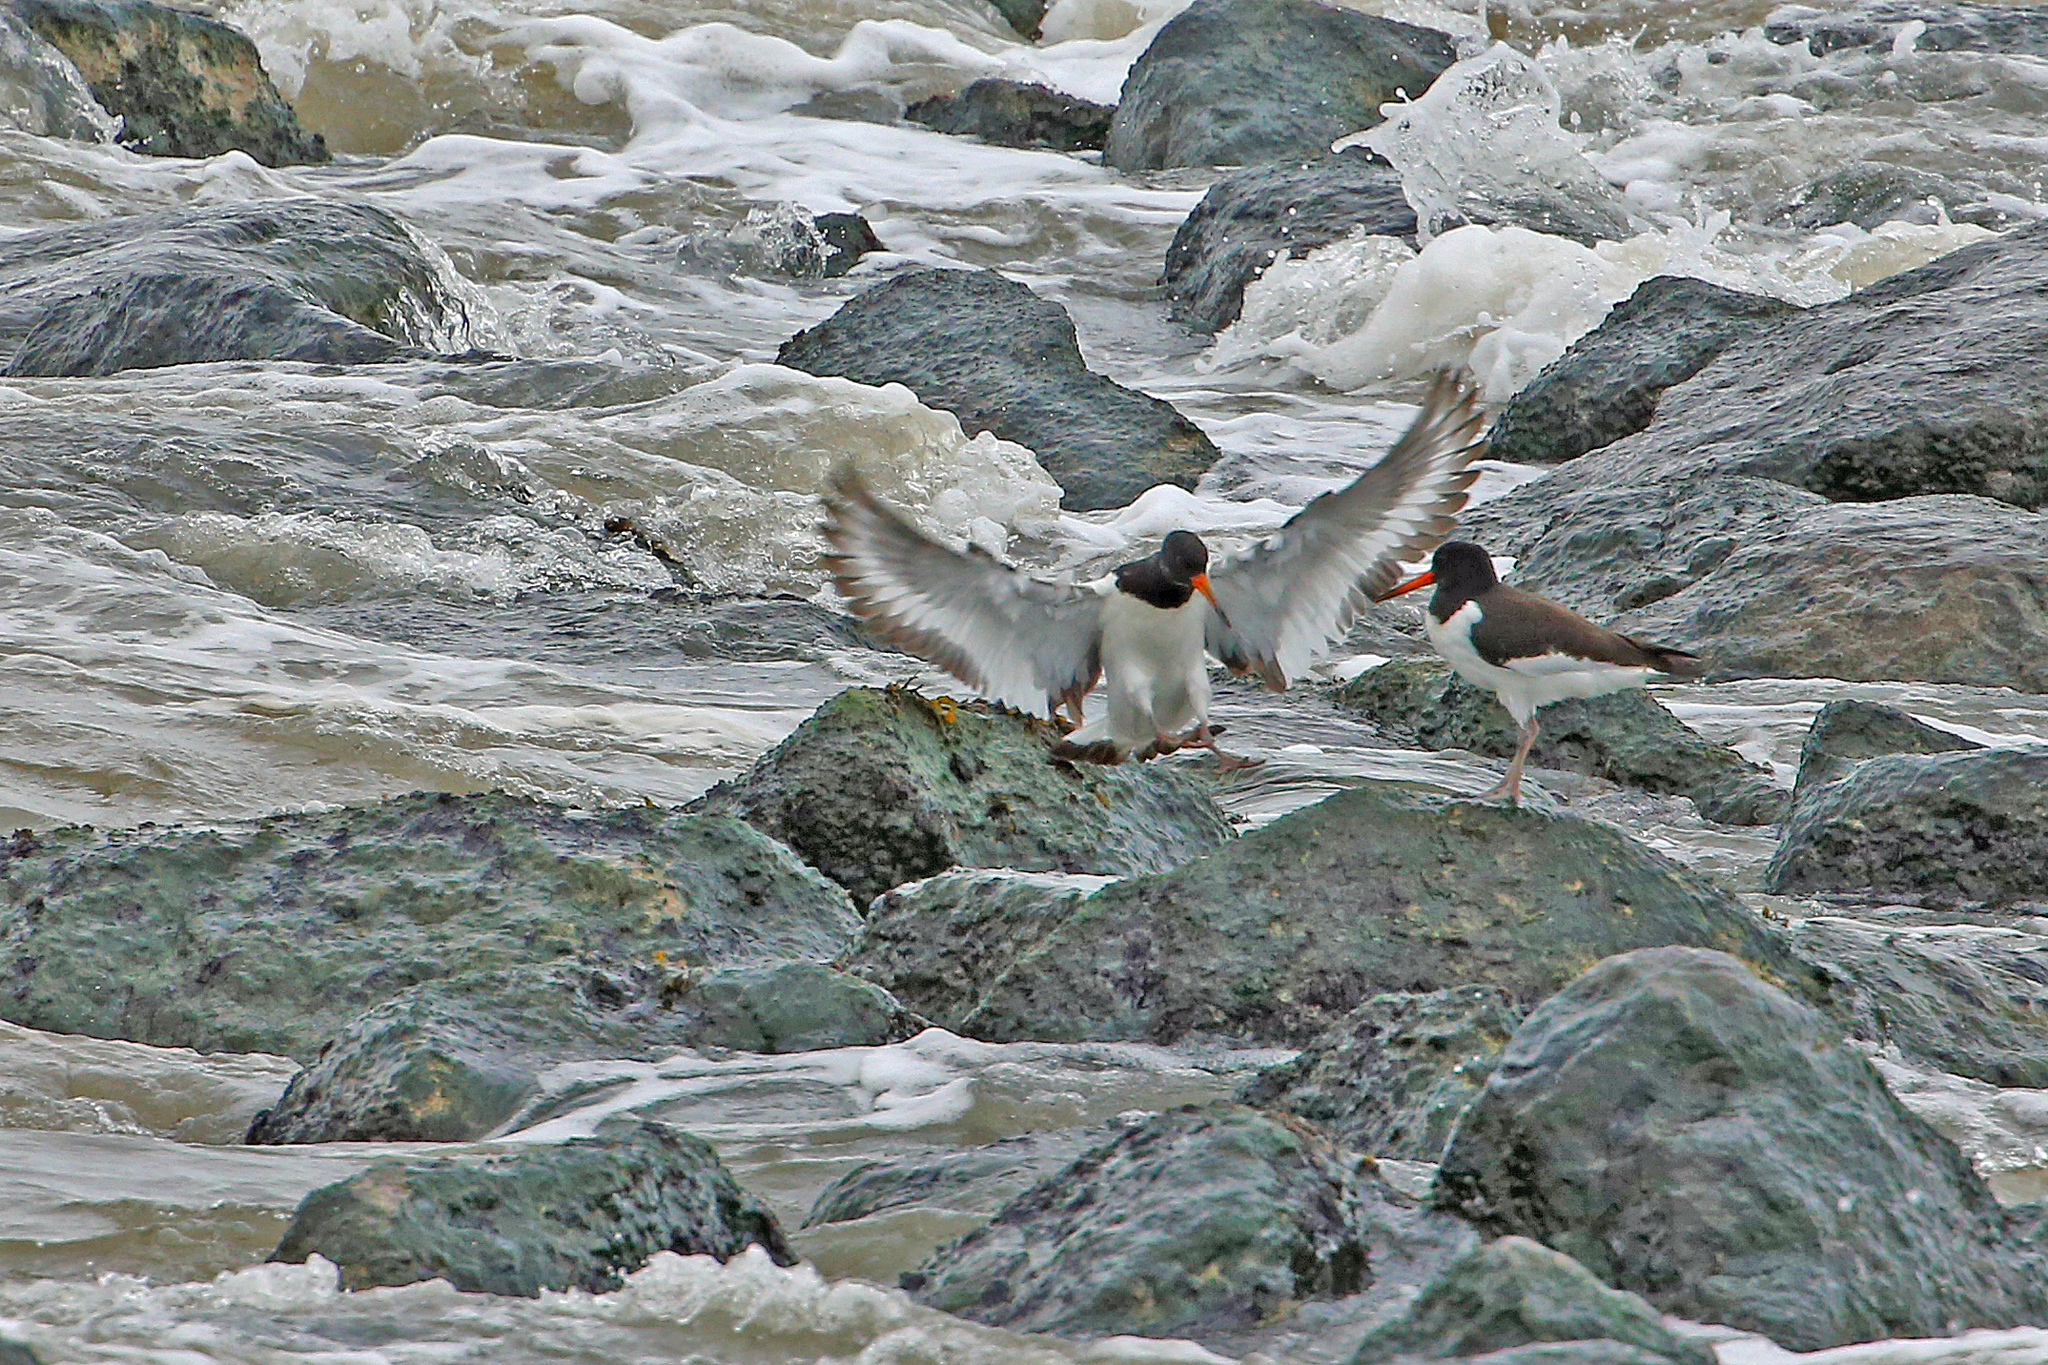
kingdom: Animalia
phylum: Chordata
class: Aves
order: Charadriiformes
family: Haematopodidae
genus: Haematopus
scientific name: Haematopus ostralegus
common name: Eurasian oystercatcher
